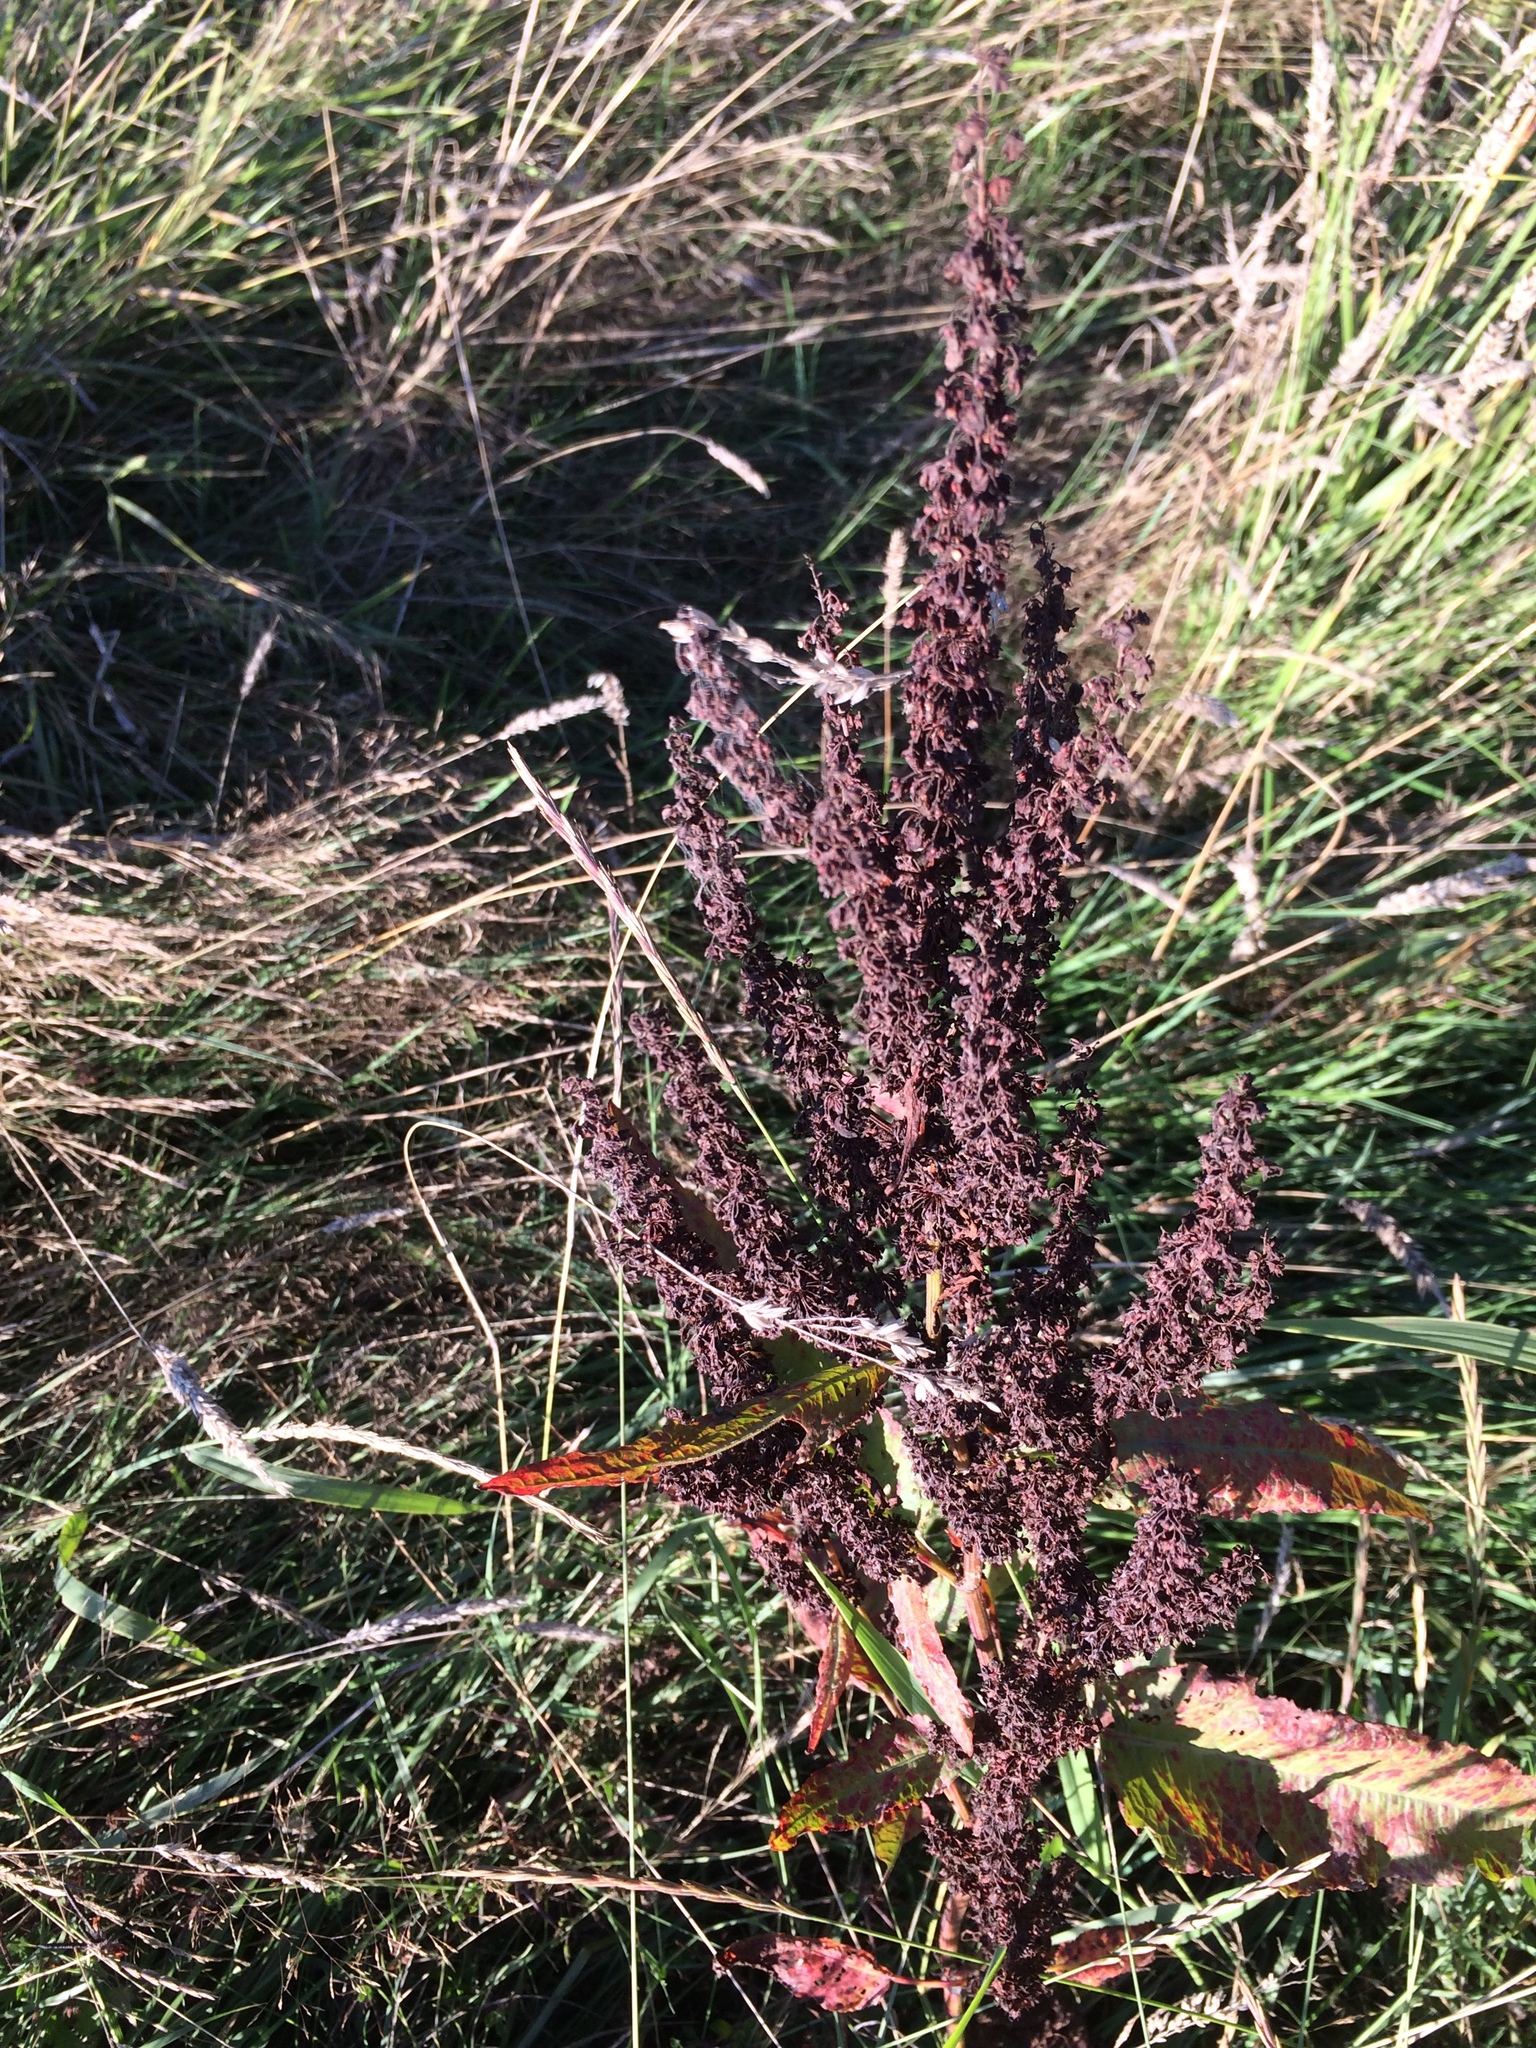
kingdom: Plantae
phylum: Tracheophyta
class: Magnoliopsida
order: Caryophyllales
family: Polygonaceae
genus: Rumex
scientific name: Rumex crispus
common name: Curled dock
